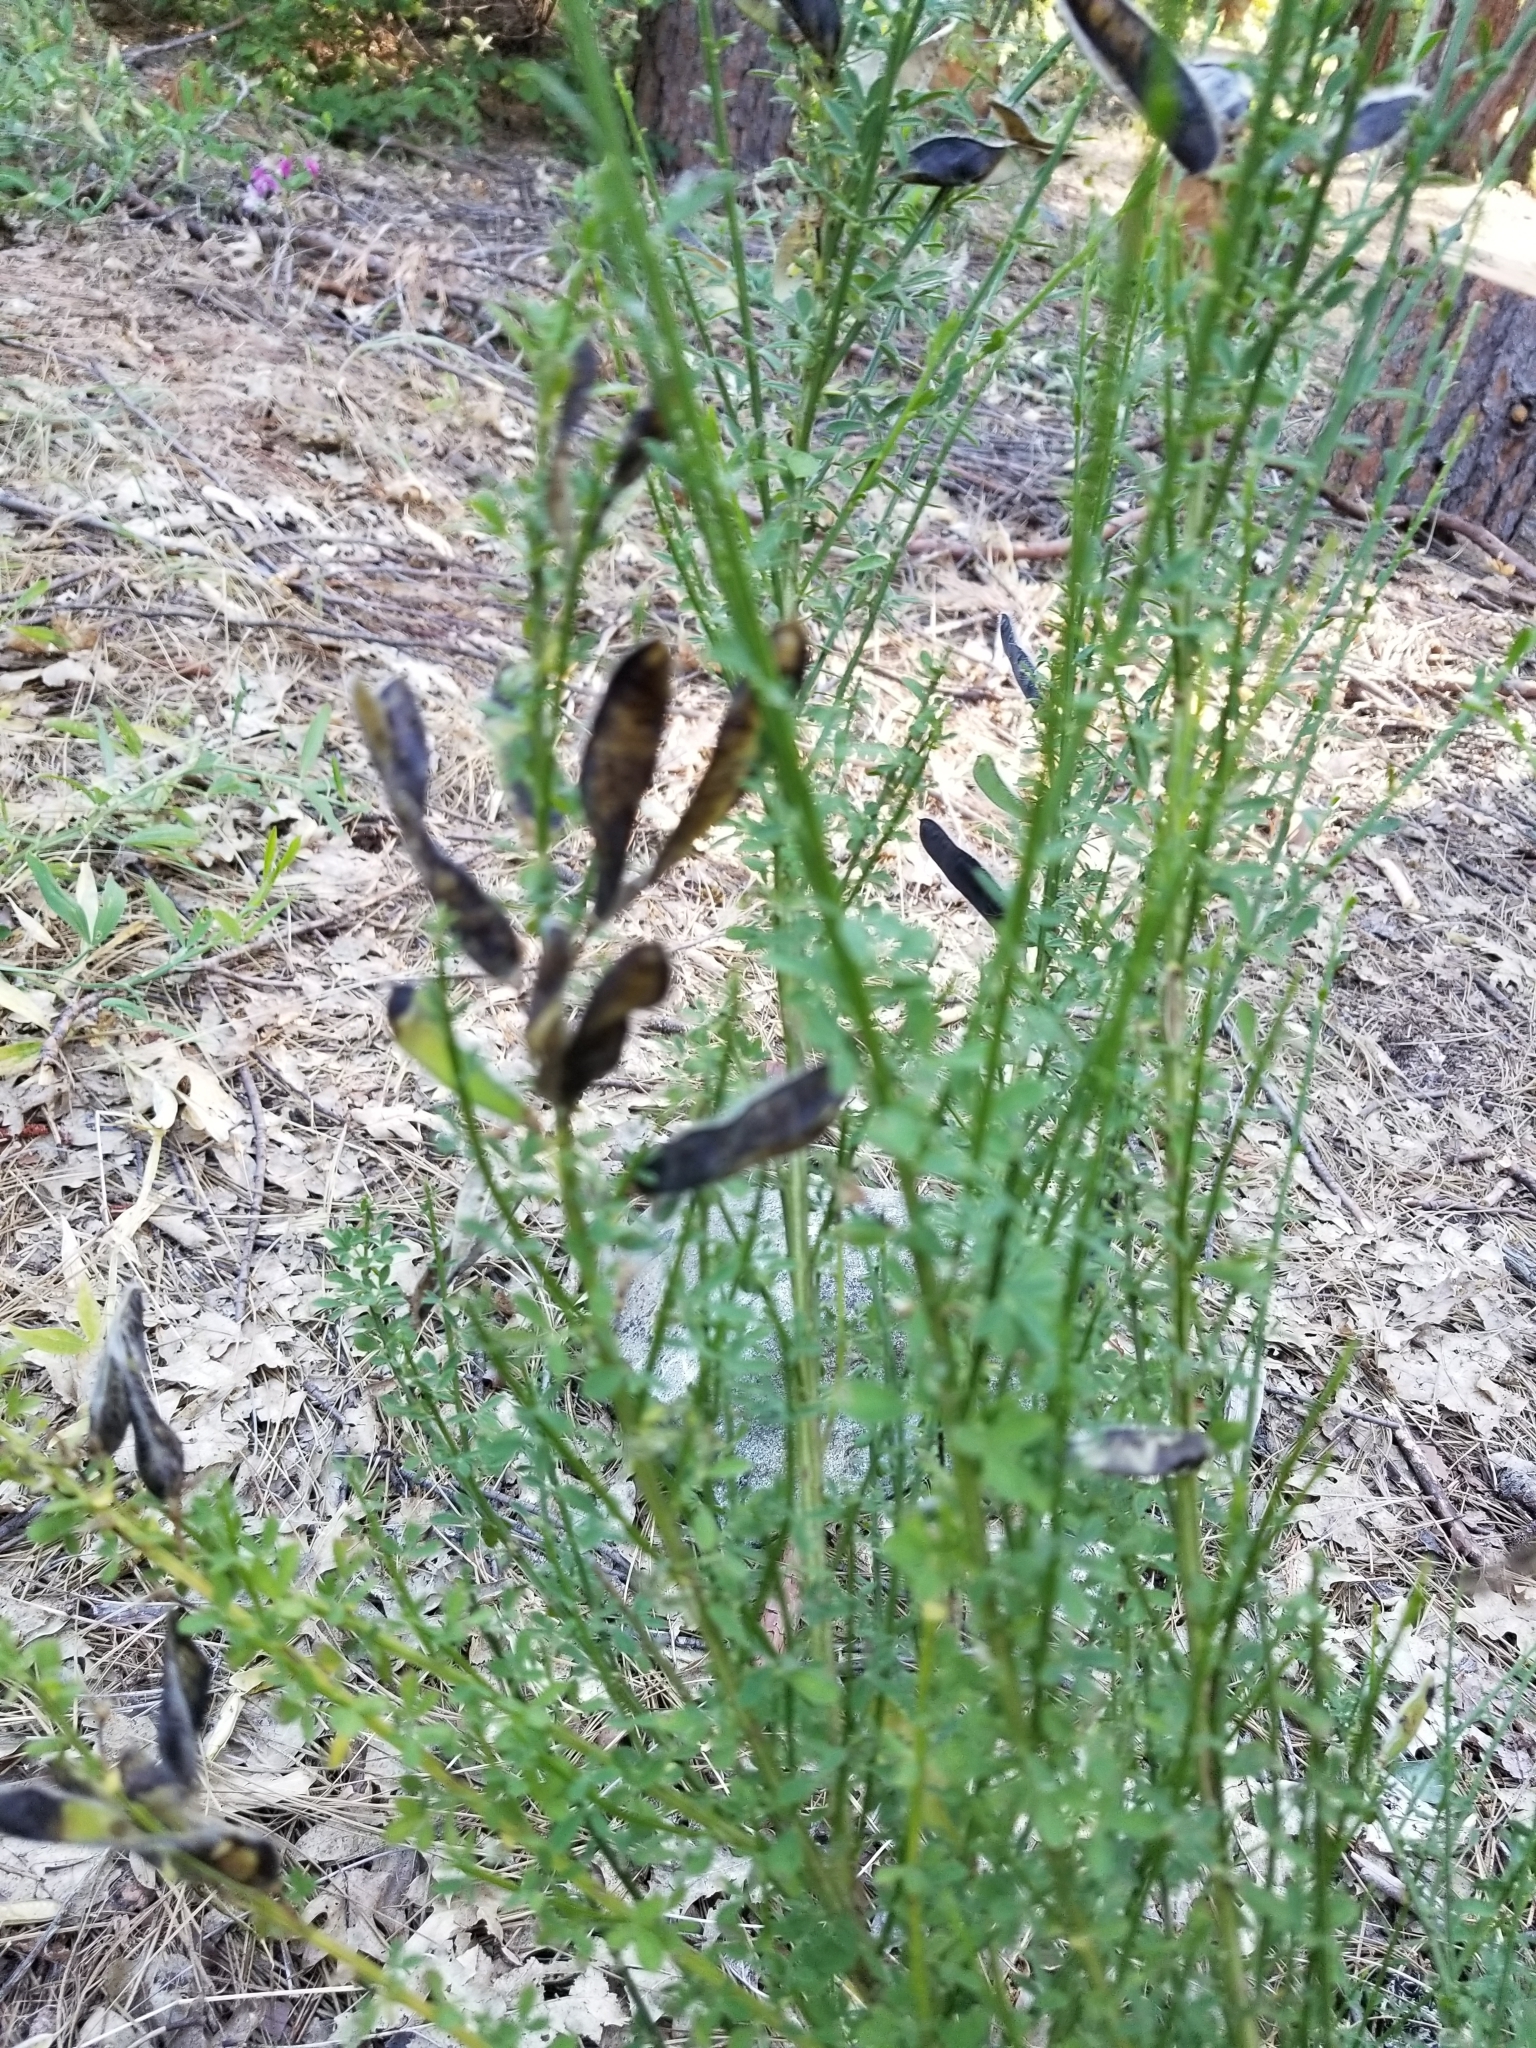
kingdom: Plantae
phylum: Tracheophyta
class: Magnoliopsida
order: Fabales
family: Fabaceae
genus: Cytisus
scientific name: Cytisus scoparius
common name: Scotch broom
